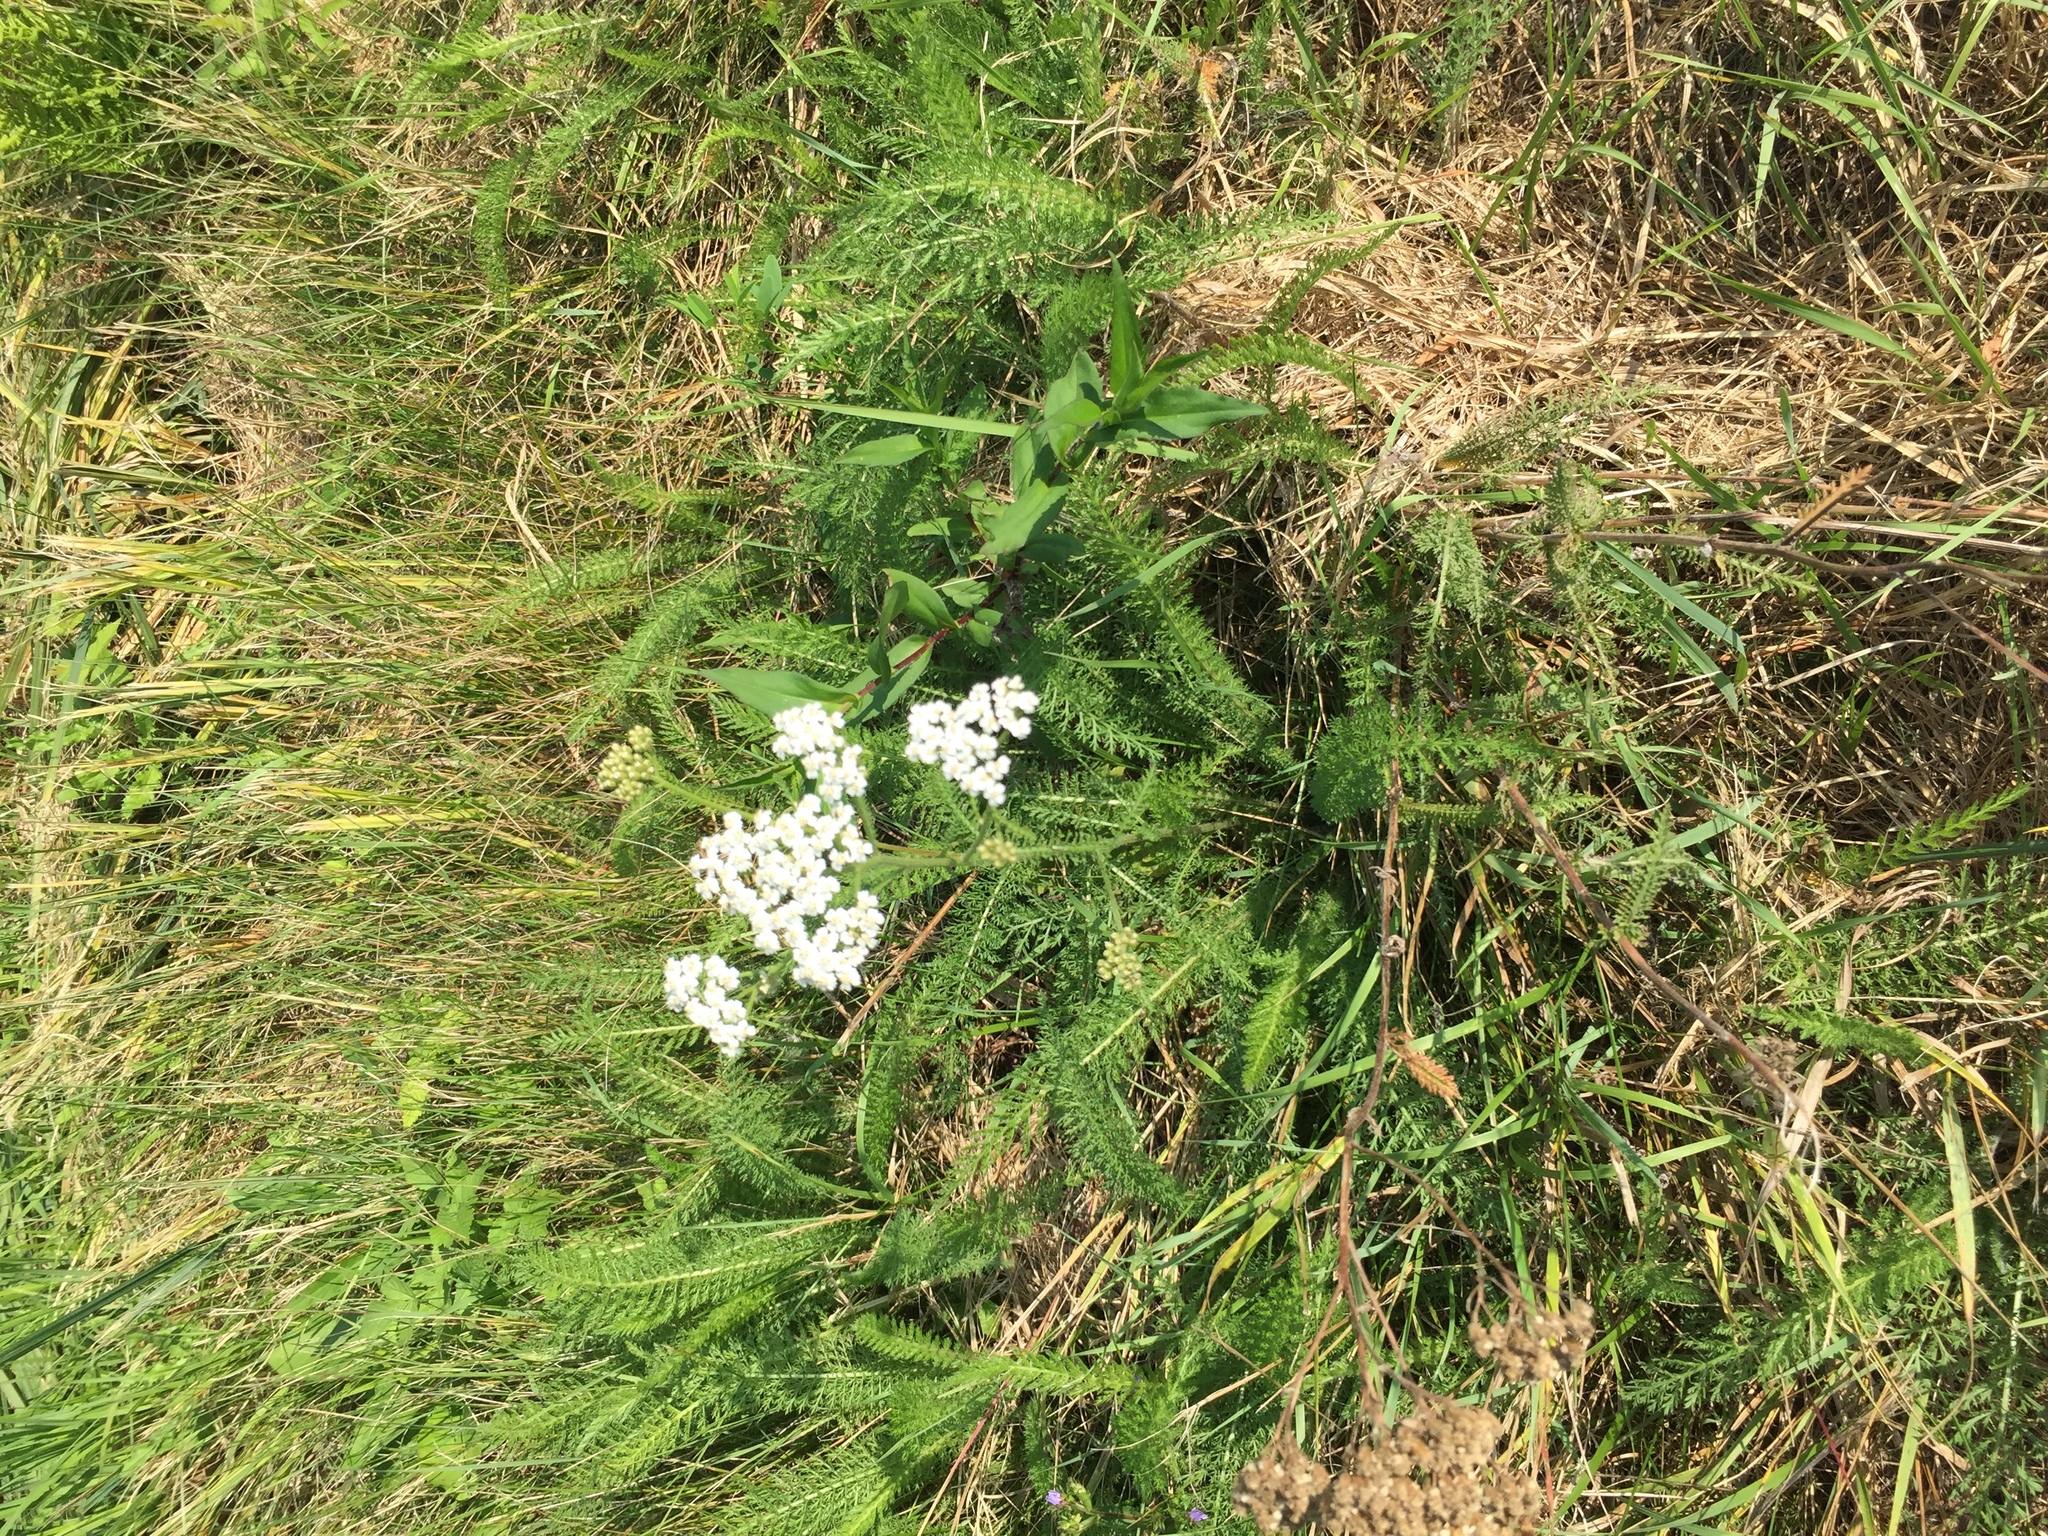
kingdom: Plantae
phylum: Tracheophyta
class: Magnoliopsida
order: Asterales
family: Asteraceae
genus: Achillea
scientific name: Achillea millefolium
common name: Yarrow
